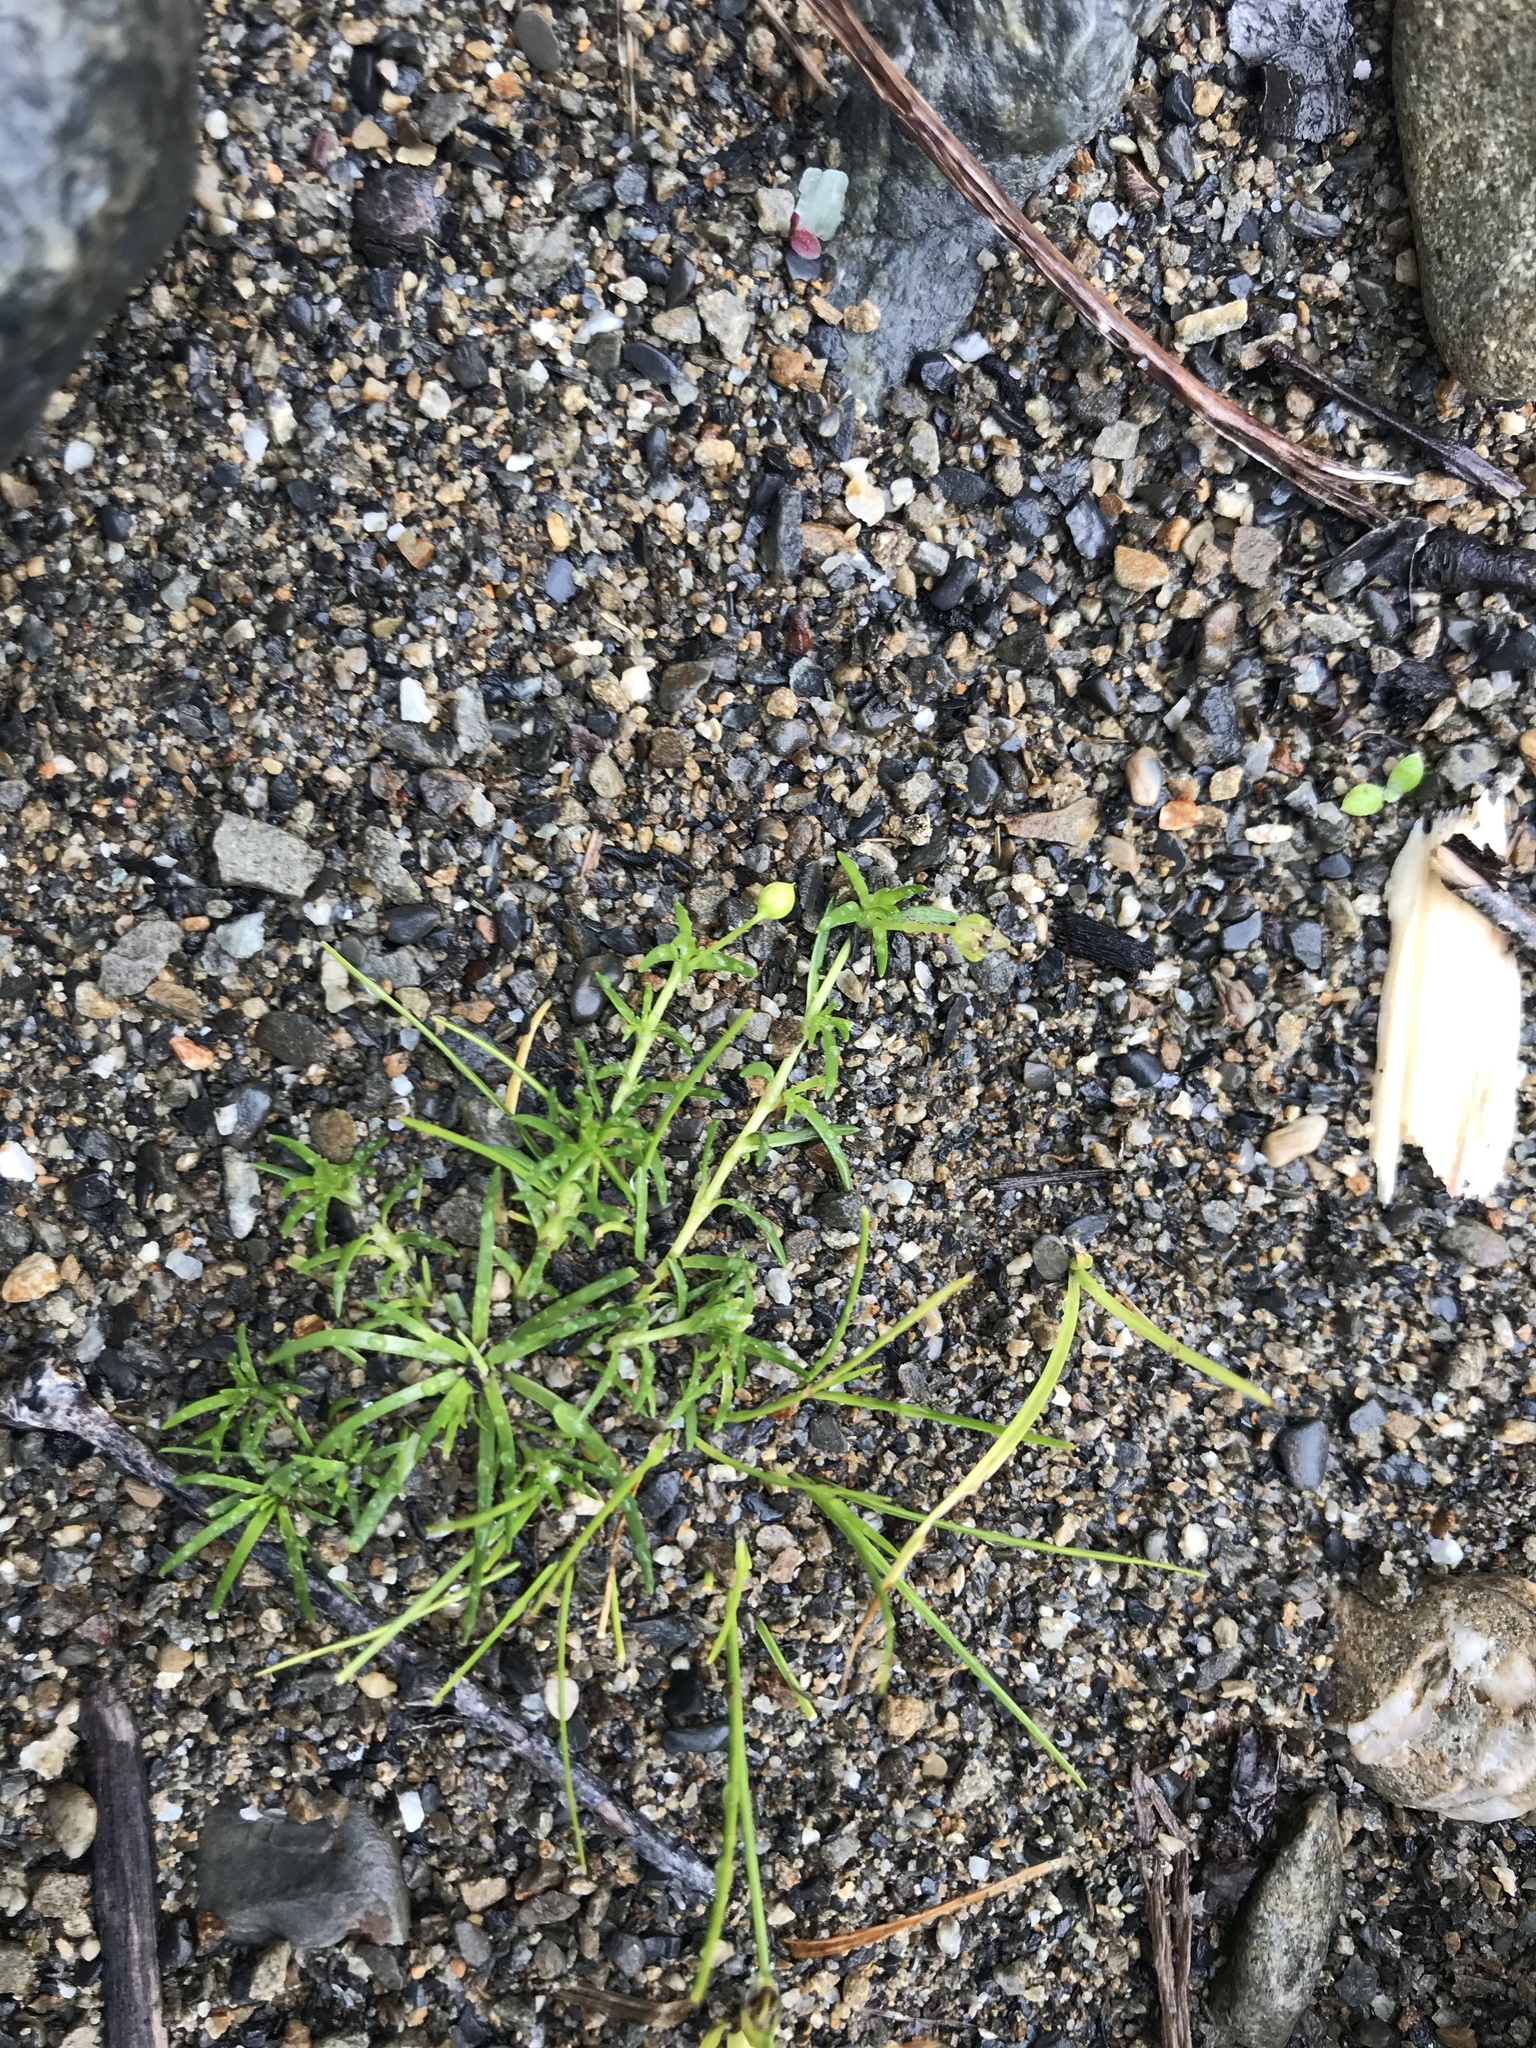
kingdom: Plantae
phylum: Tracheophyta
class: Magnoliopsida
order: Caryophyllales
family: Caryophyllaceae
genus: Sagina
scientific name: Sagina procumbens
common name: Procumbent pearlwort
